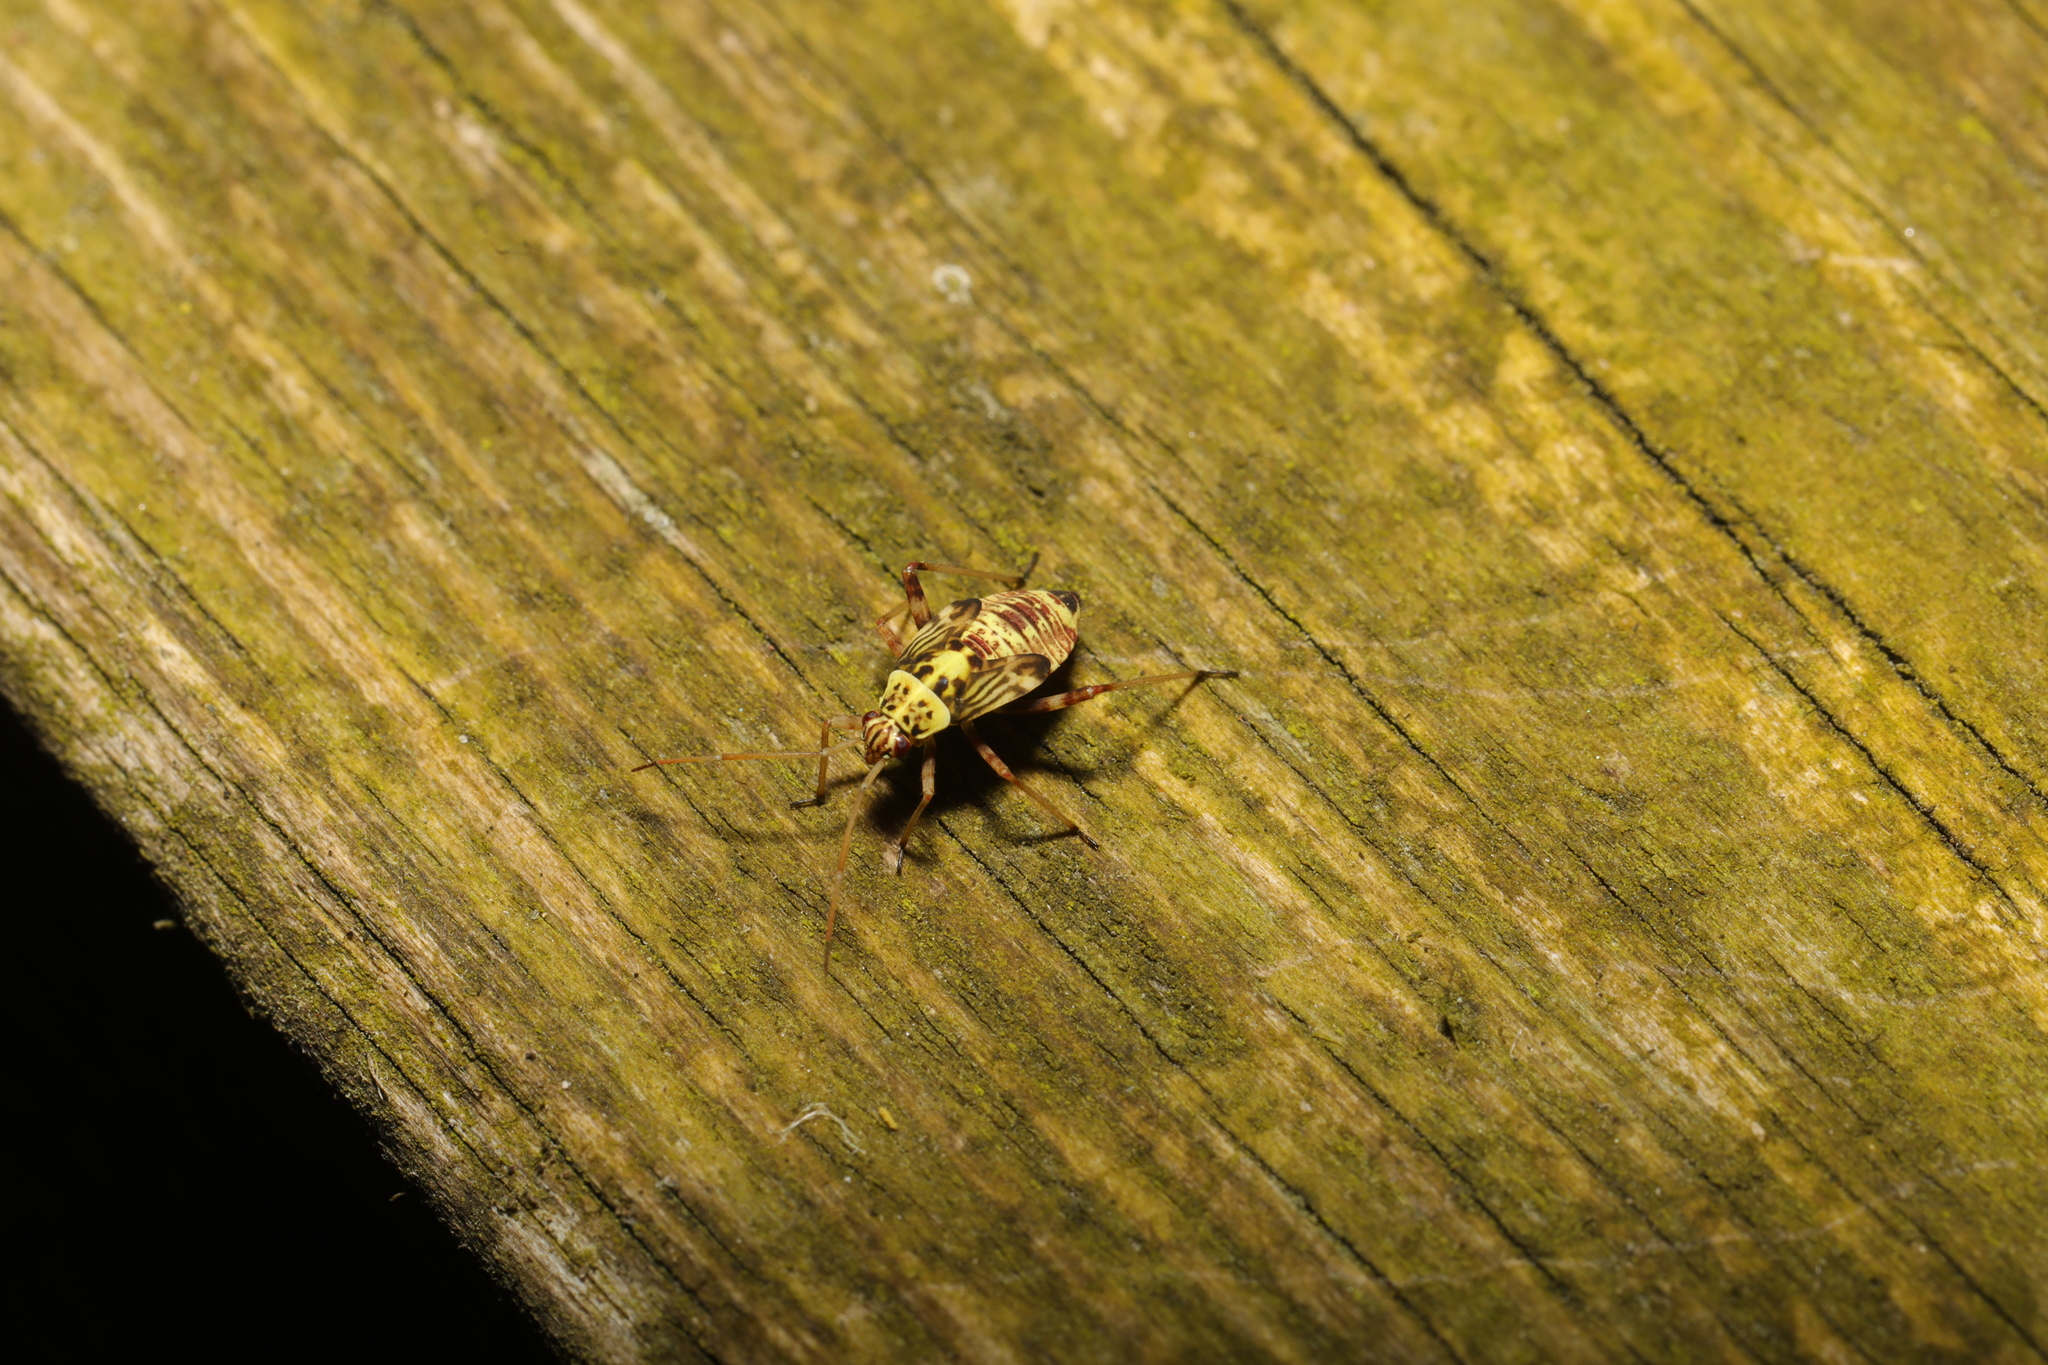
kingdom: Animalia
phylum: Arthropoda
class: Insecta
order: Hemiptera
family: Miridae
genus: Rhabdomiris
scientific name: Rhabdomiris striatellus
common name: Plant bug
